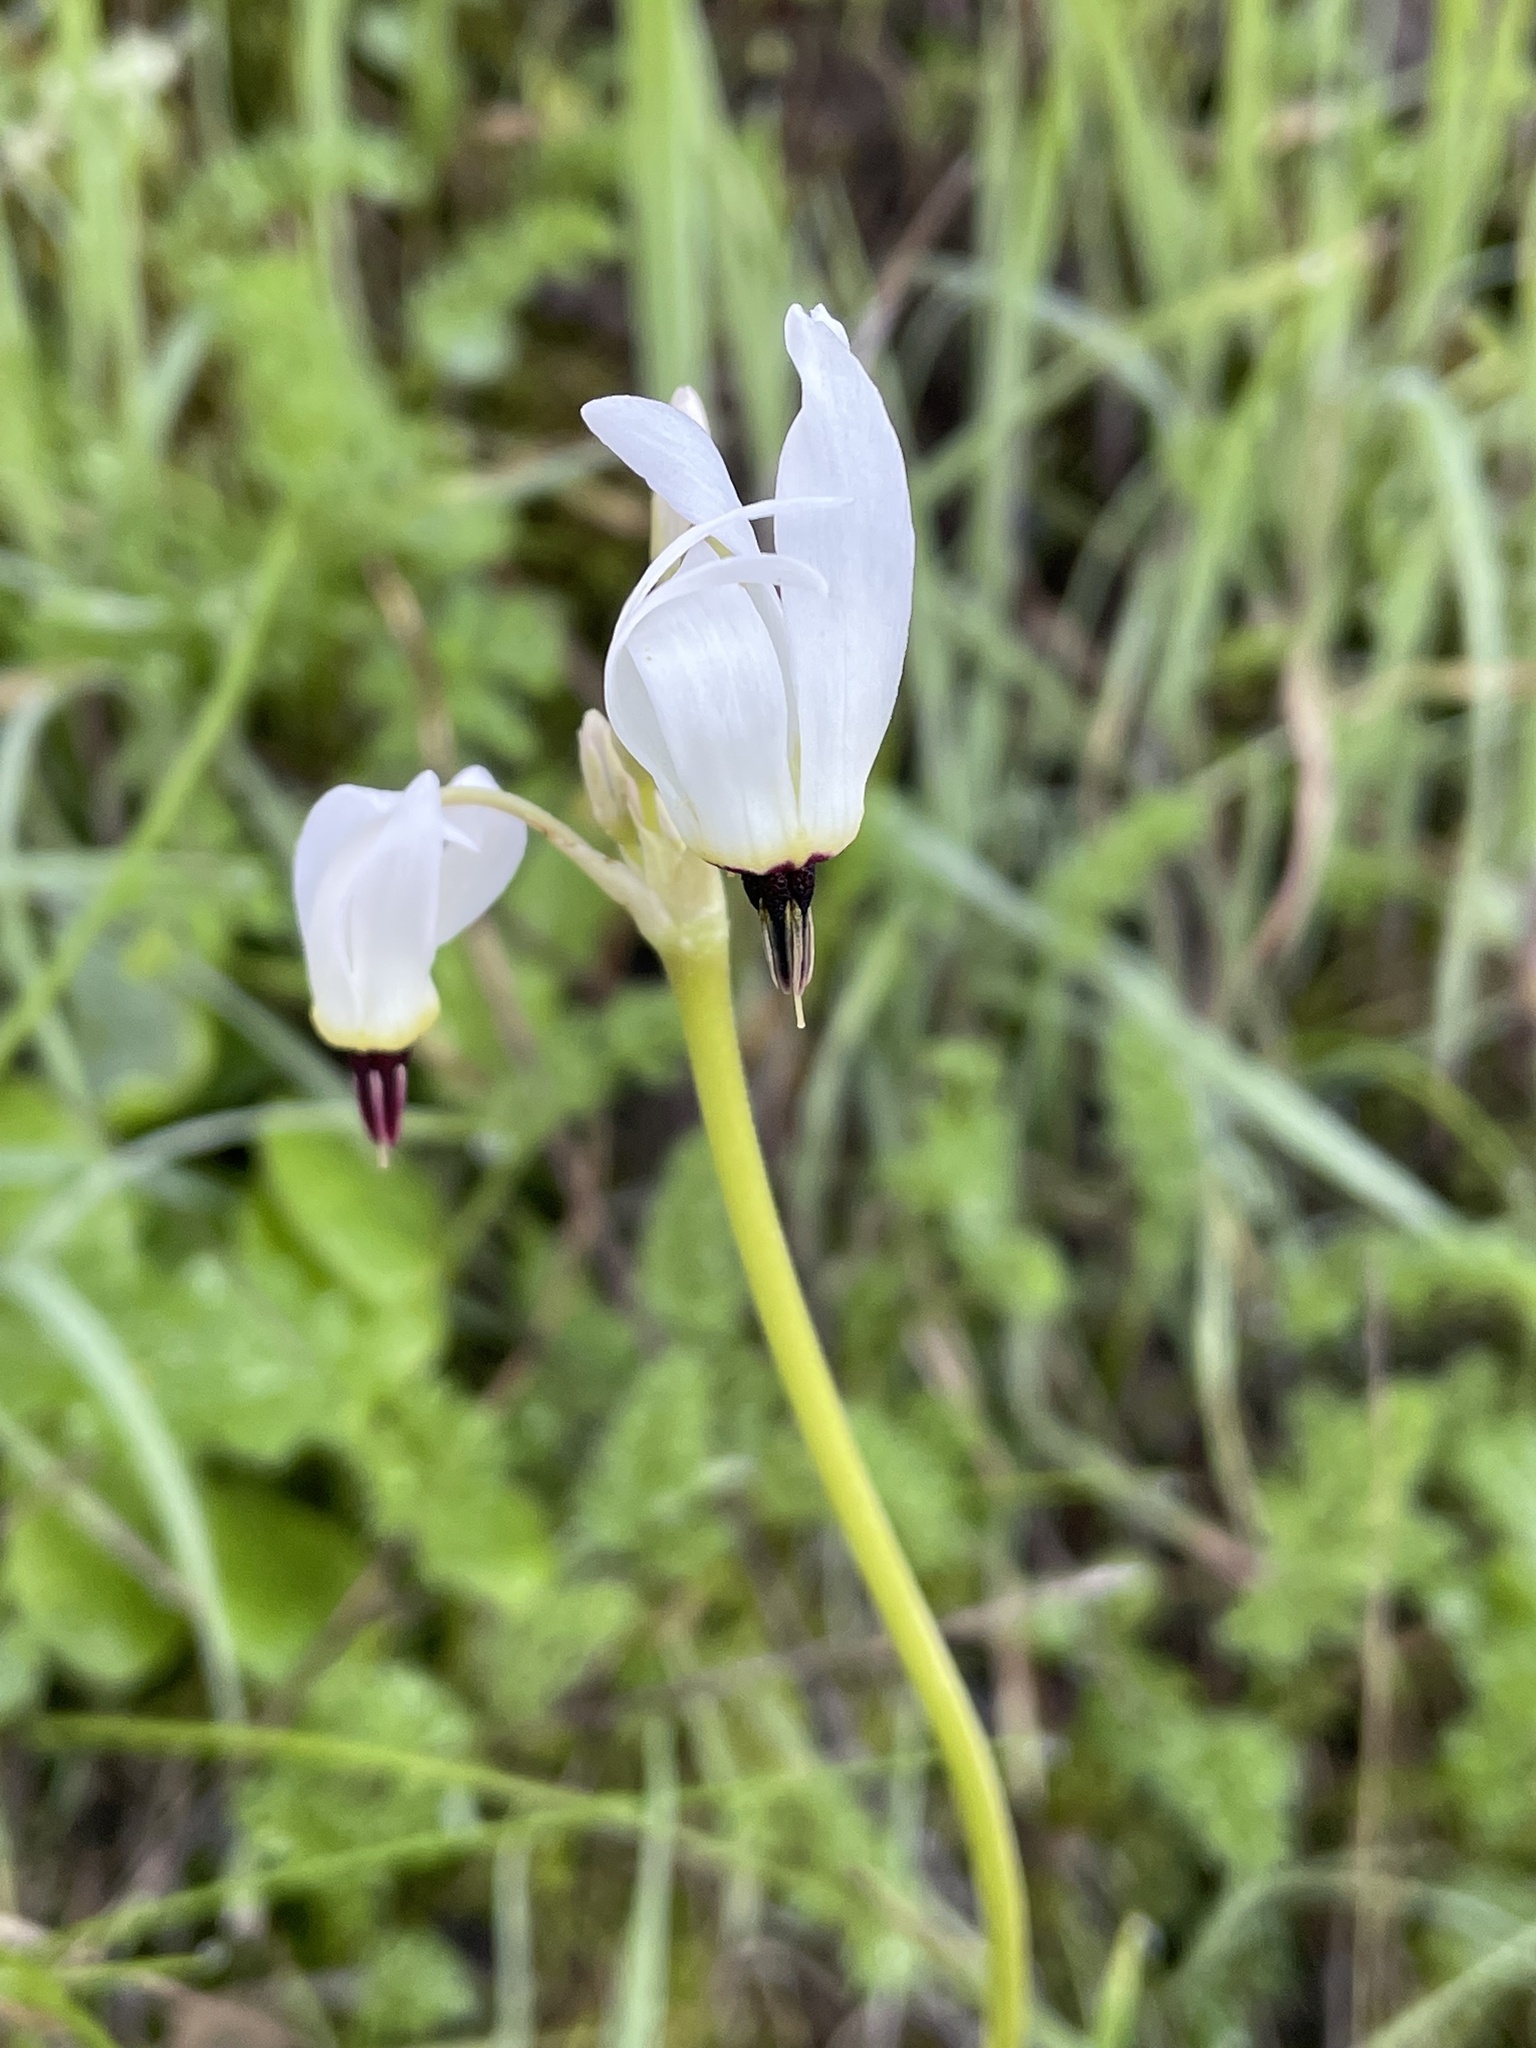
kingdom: Plantae
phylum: Tracheophyta
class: Magnoliopsida
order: Ericales
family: Primulaceae
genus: Dodecatheon
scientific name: Dodecatheon hendersonii
